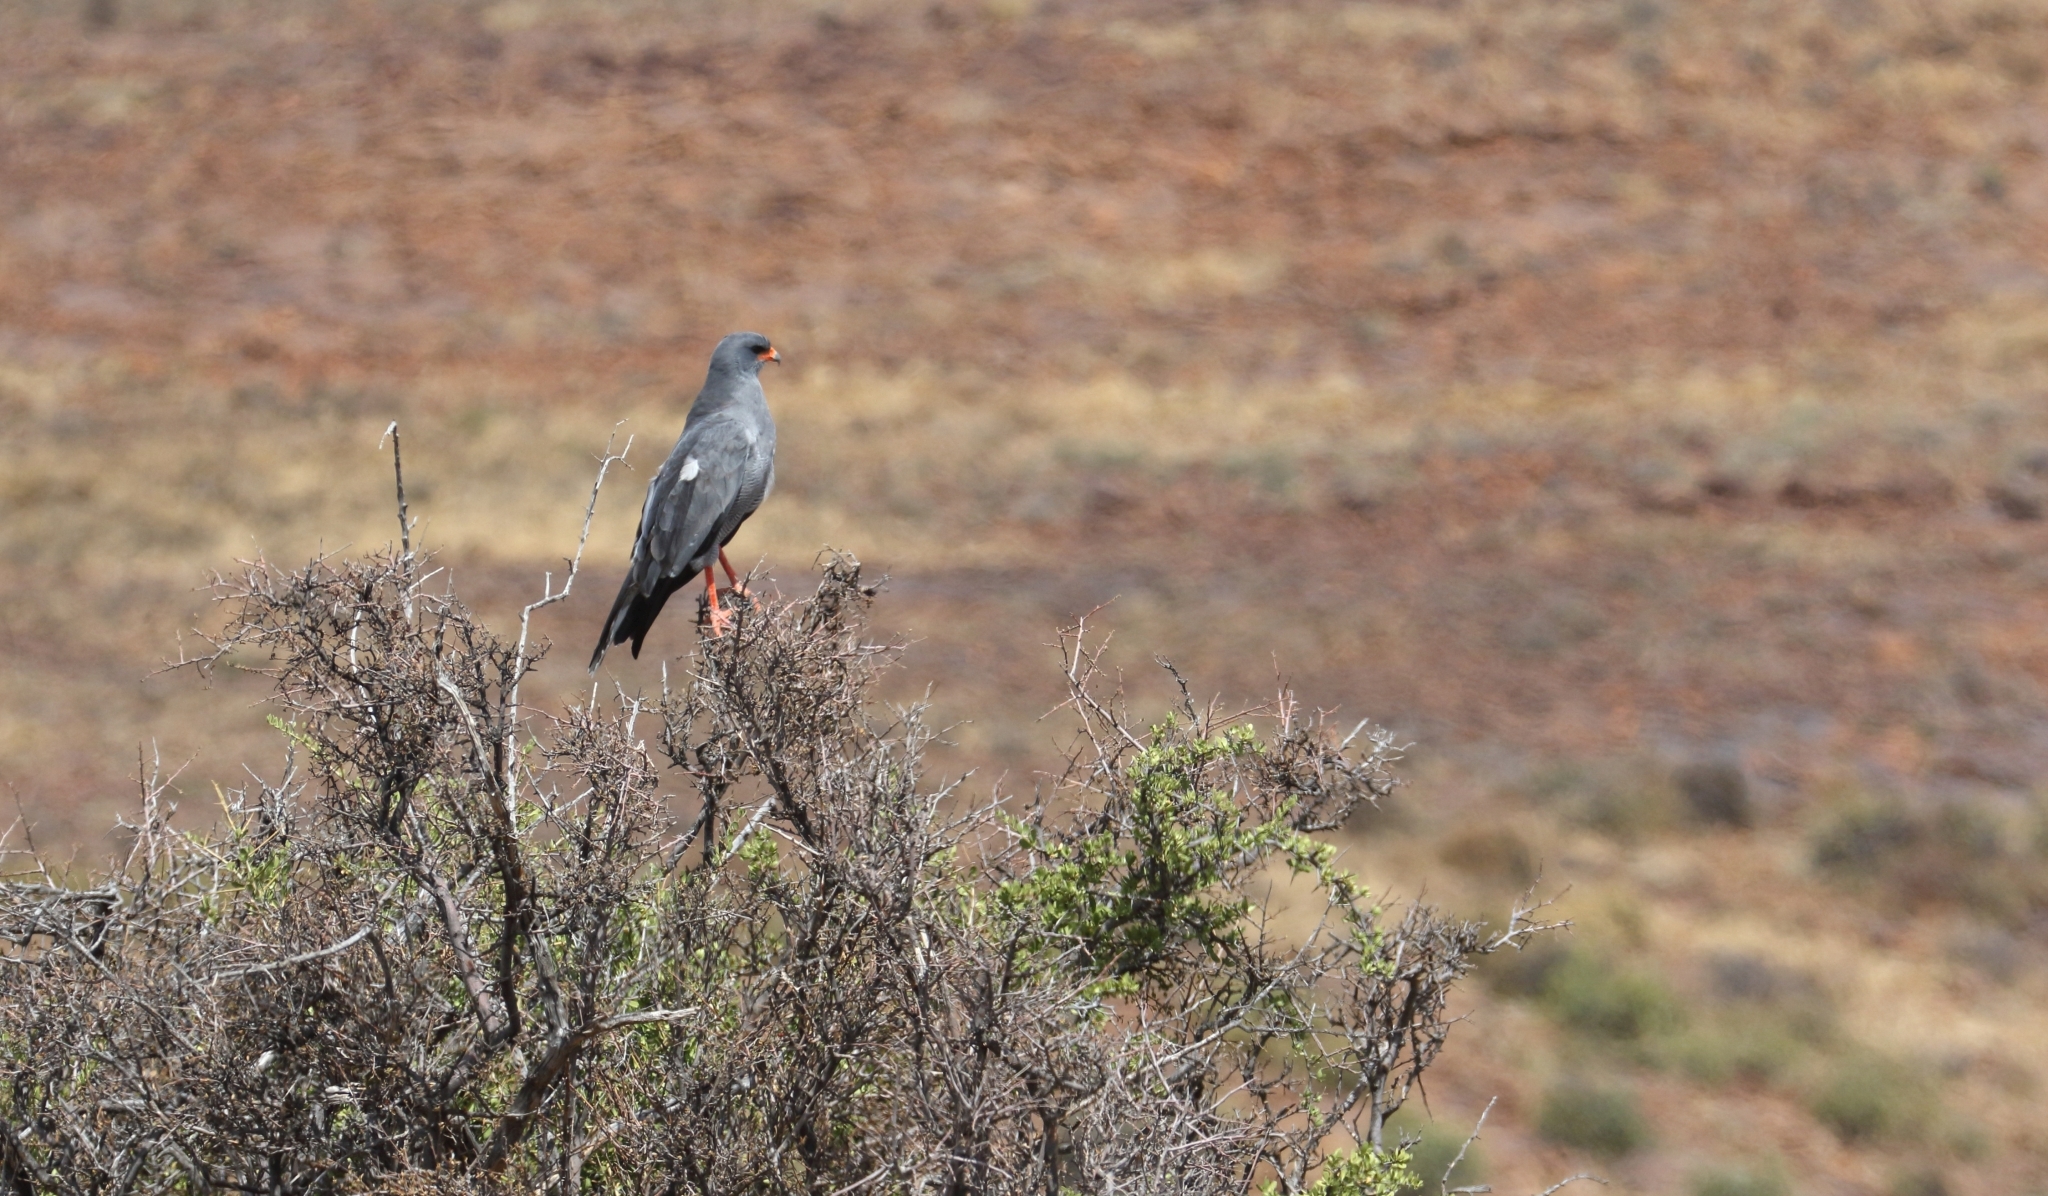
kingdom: Animalia
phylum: Chordata
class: Aves
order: Accipitriformes
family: Accipitridae
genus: Melierax
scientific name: Melierax canorus
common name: Pale chanting-goshawk
